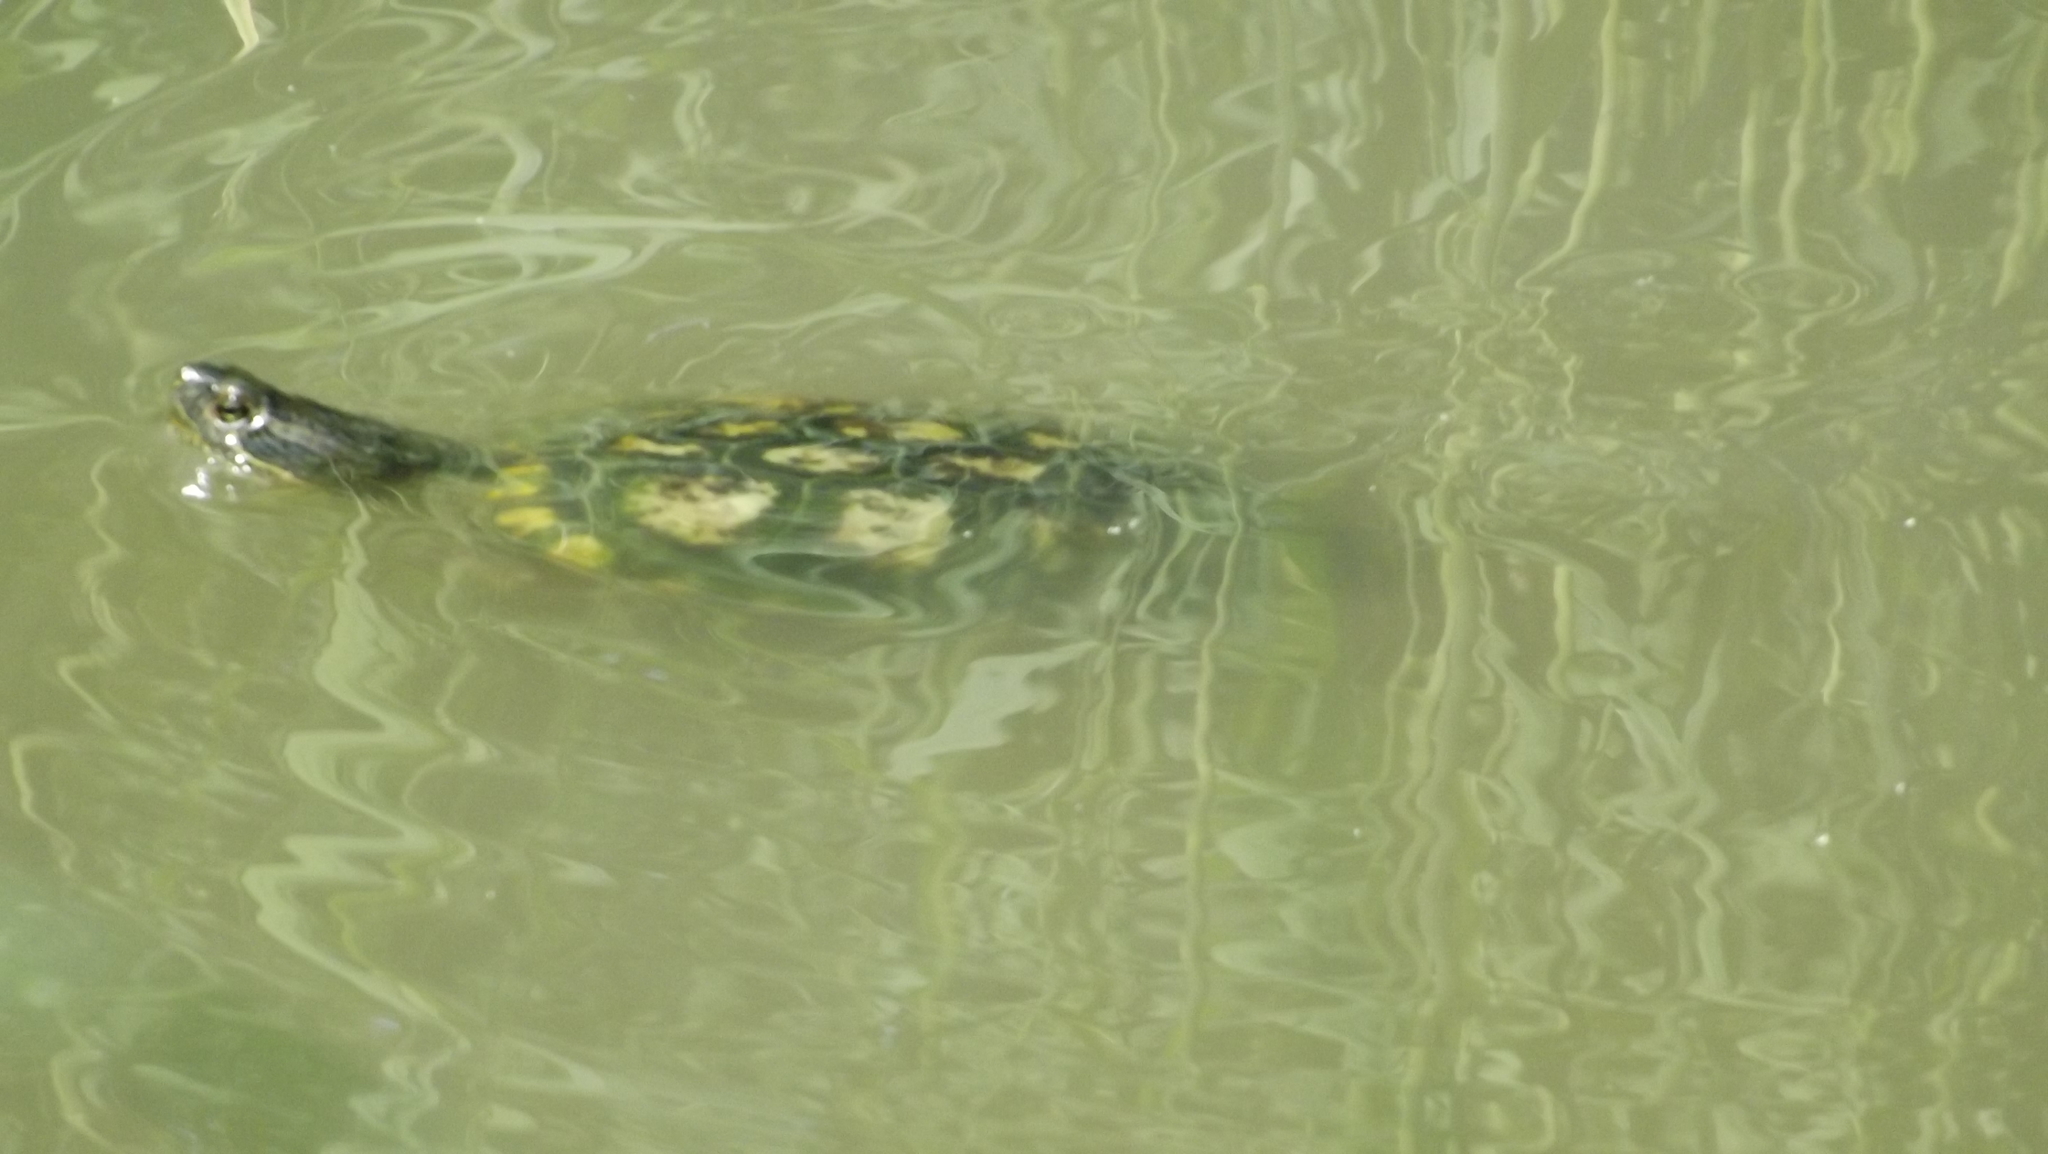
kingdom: Animalia
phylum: Chordata
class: Testudines
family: Emydidae
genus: Trachemys
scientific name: Trachemys scripta
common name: Slider
